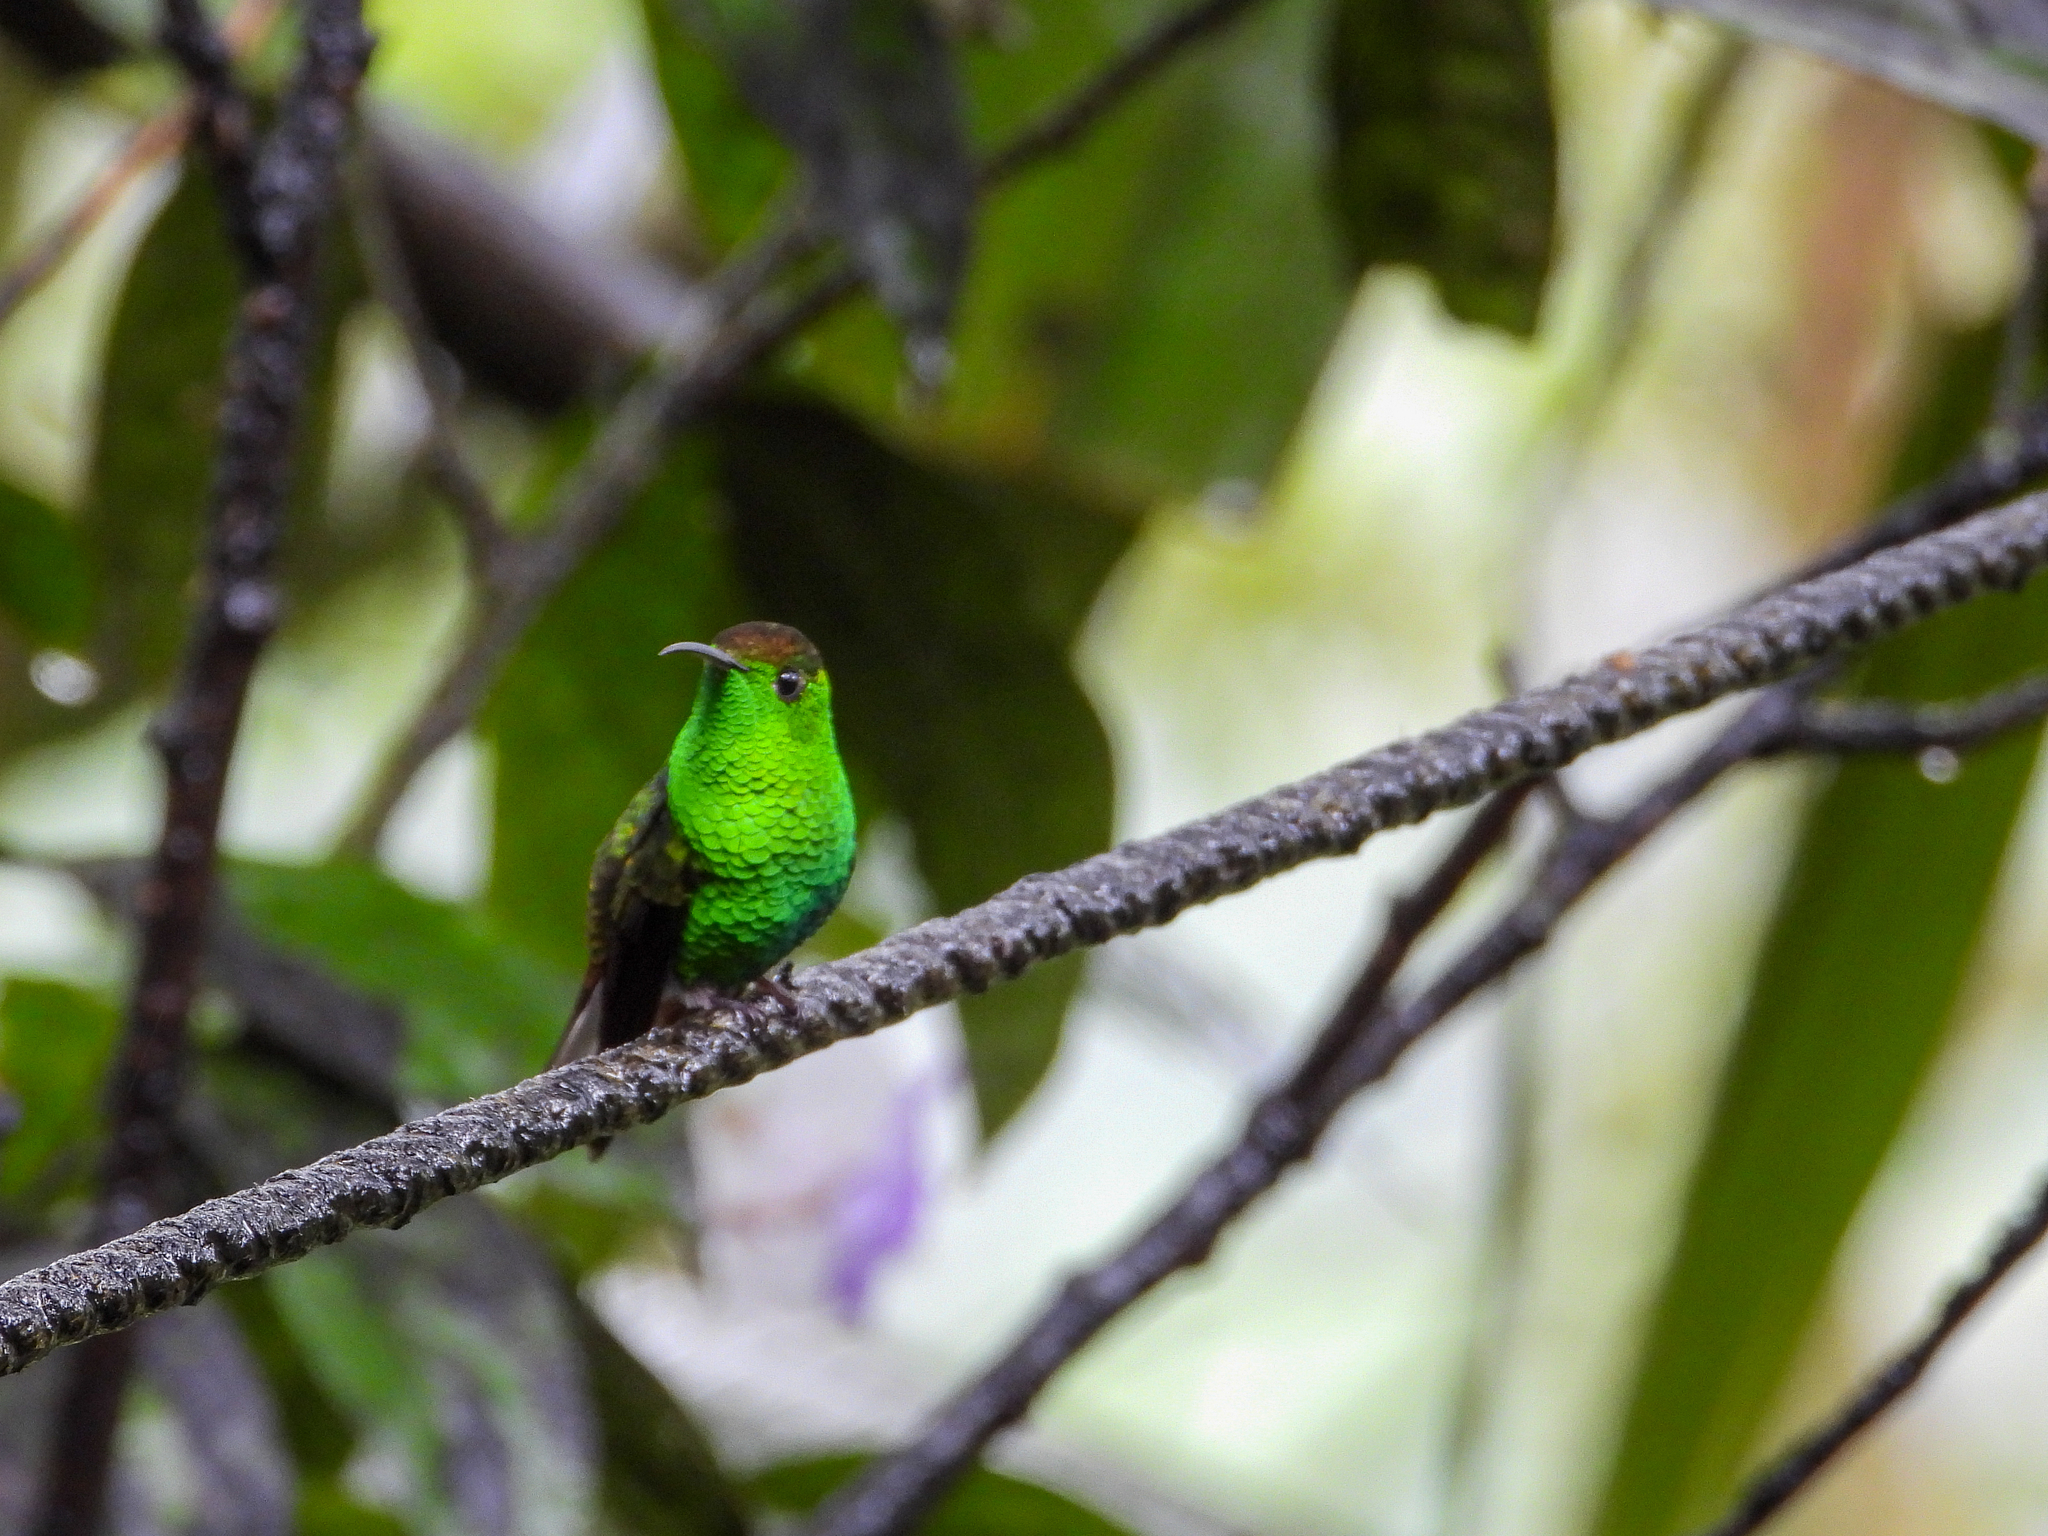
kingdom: Animalia
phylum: Chordata
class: Aves
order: Apodiformes
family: Trochilidae
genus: Microchera
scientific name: Microchera cupreiceps
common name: Coppery-headed emerald
